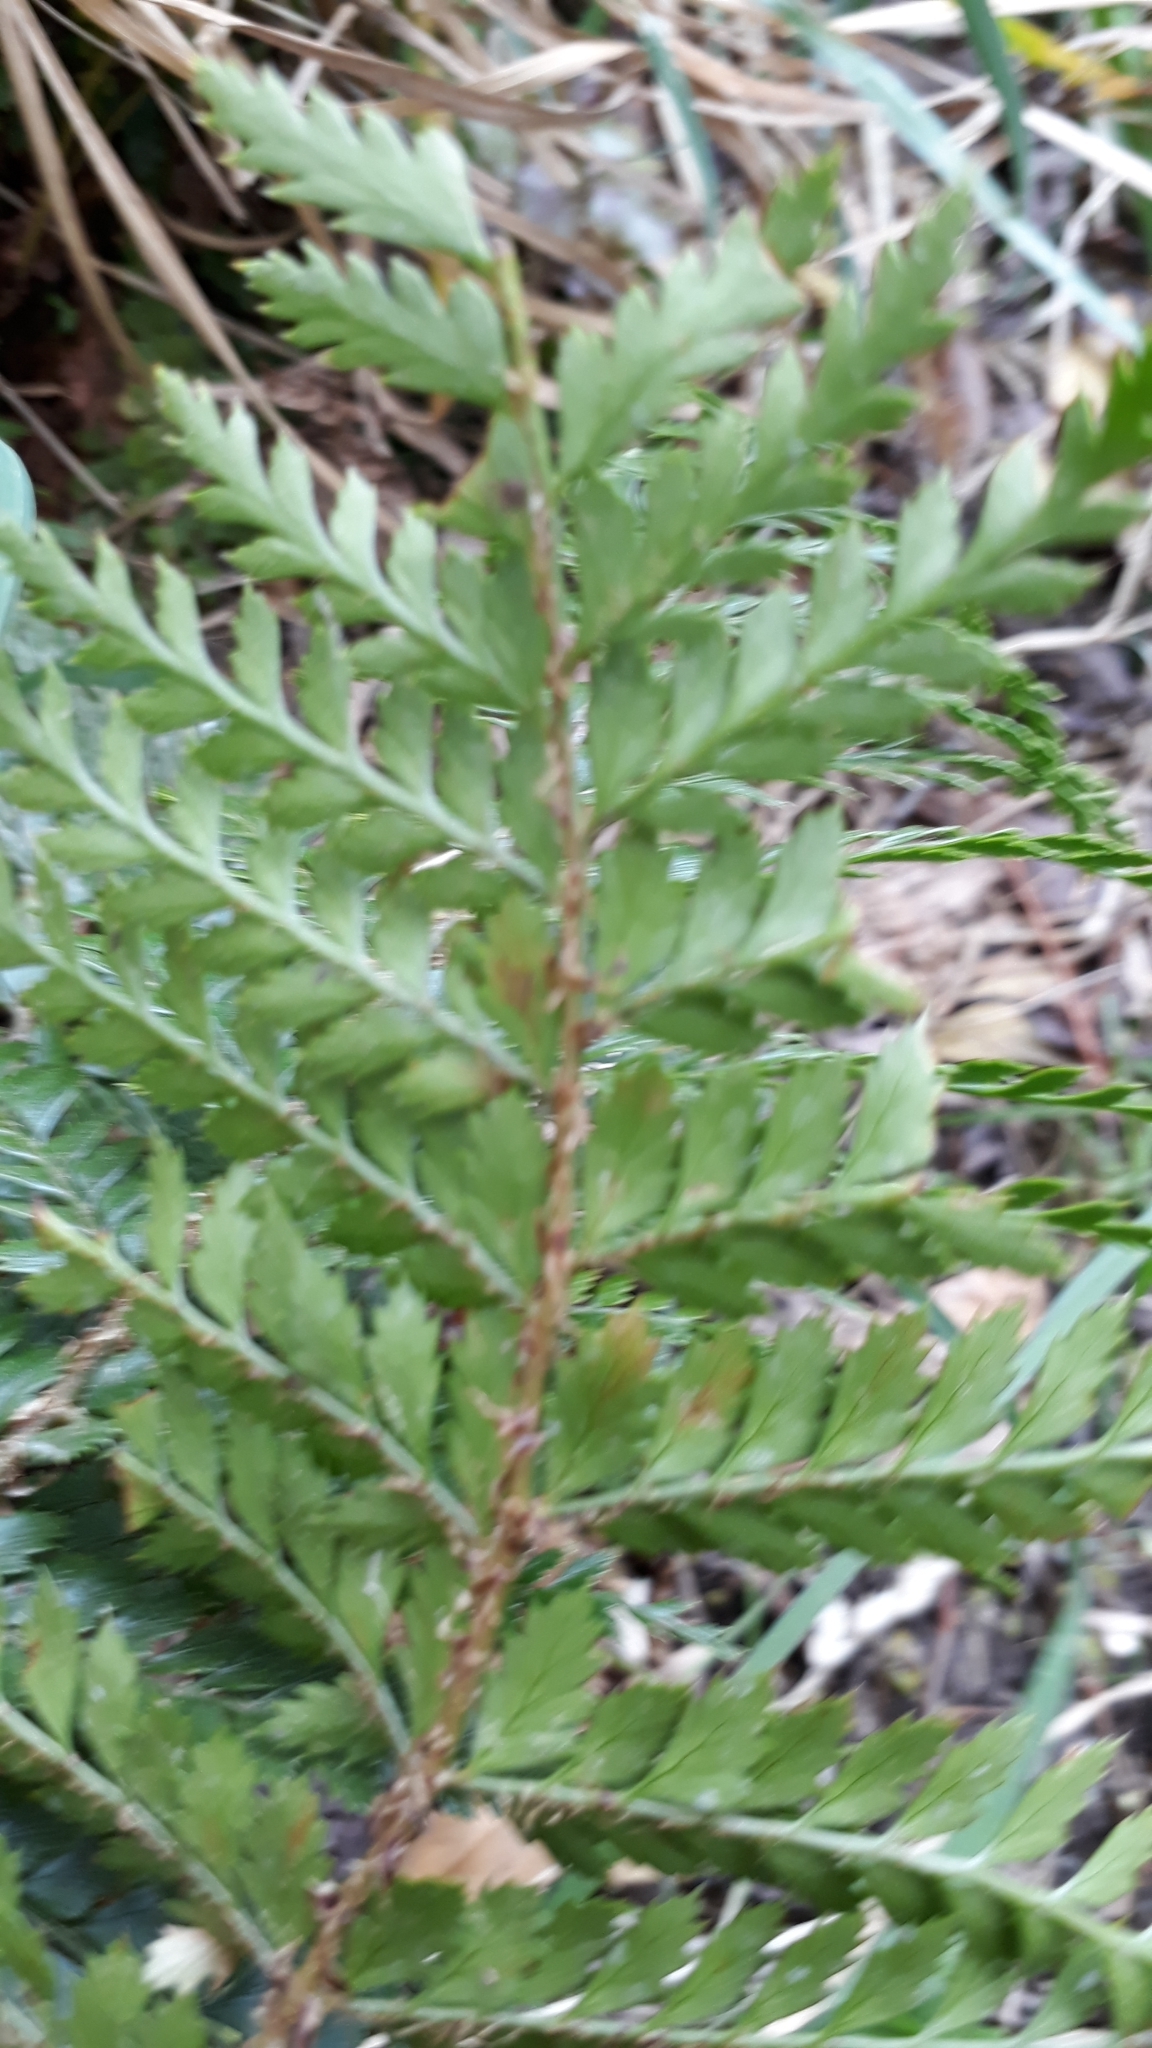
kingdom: Plantae
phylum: Tracheophyta
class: Polypodiopsida
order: Polypodiales
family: Dryopteridaceae
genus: Polystichum
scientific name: Polystichum vestitum
